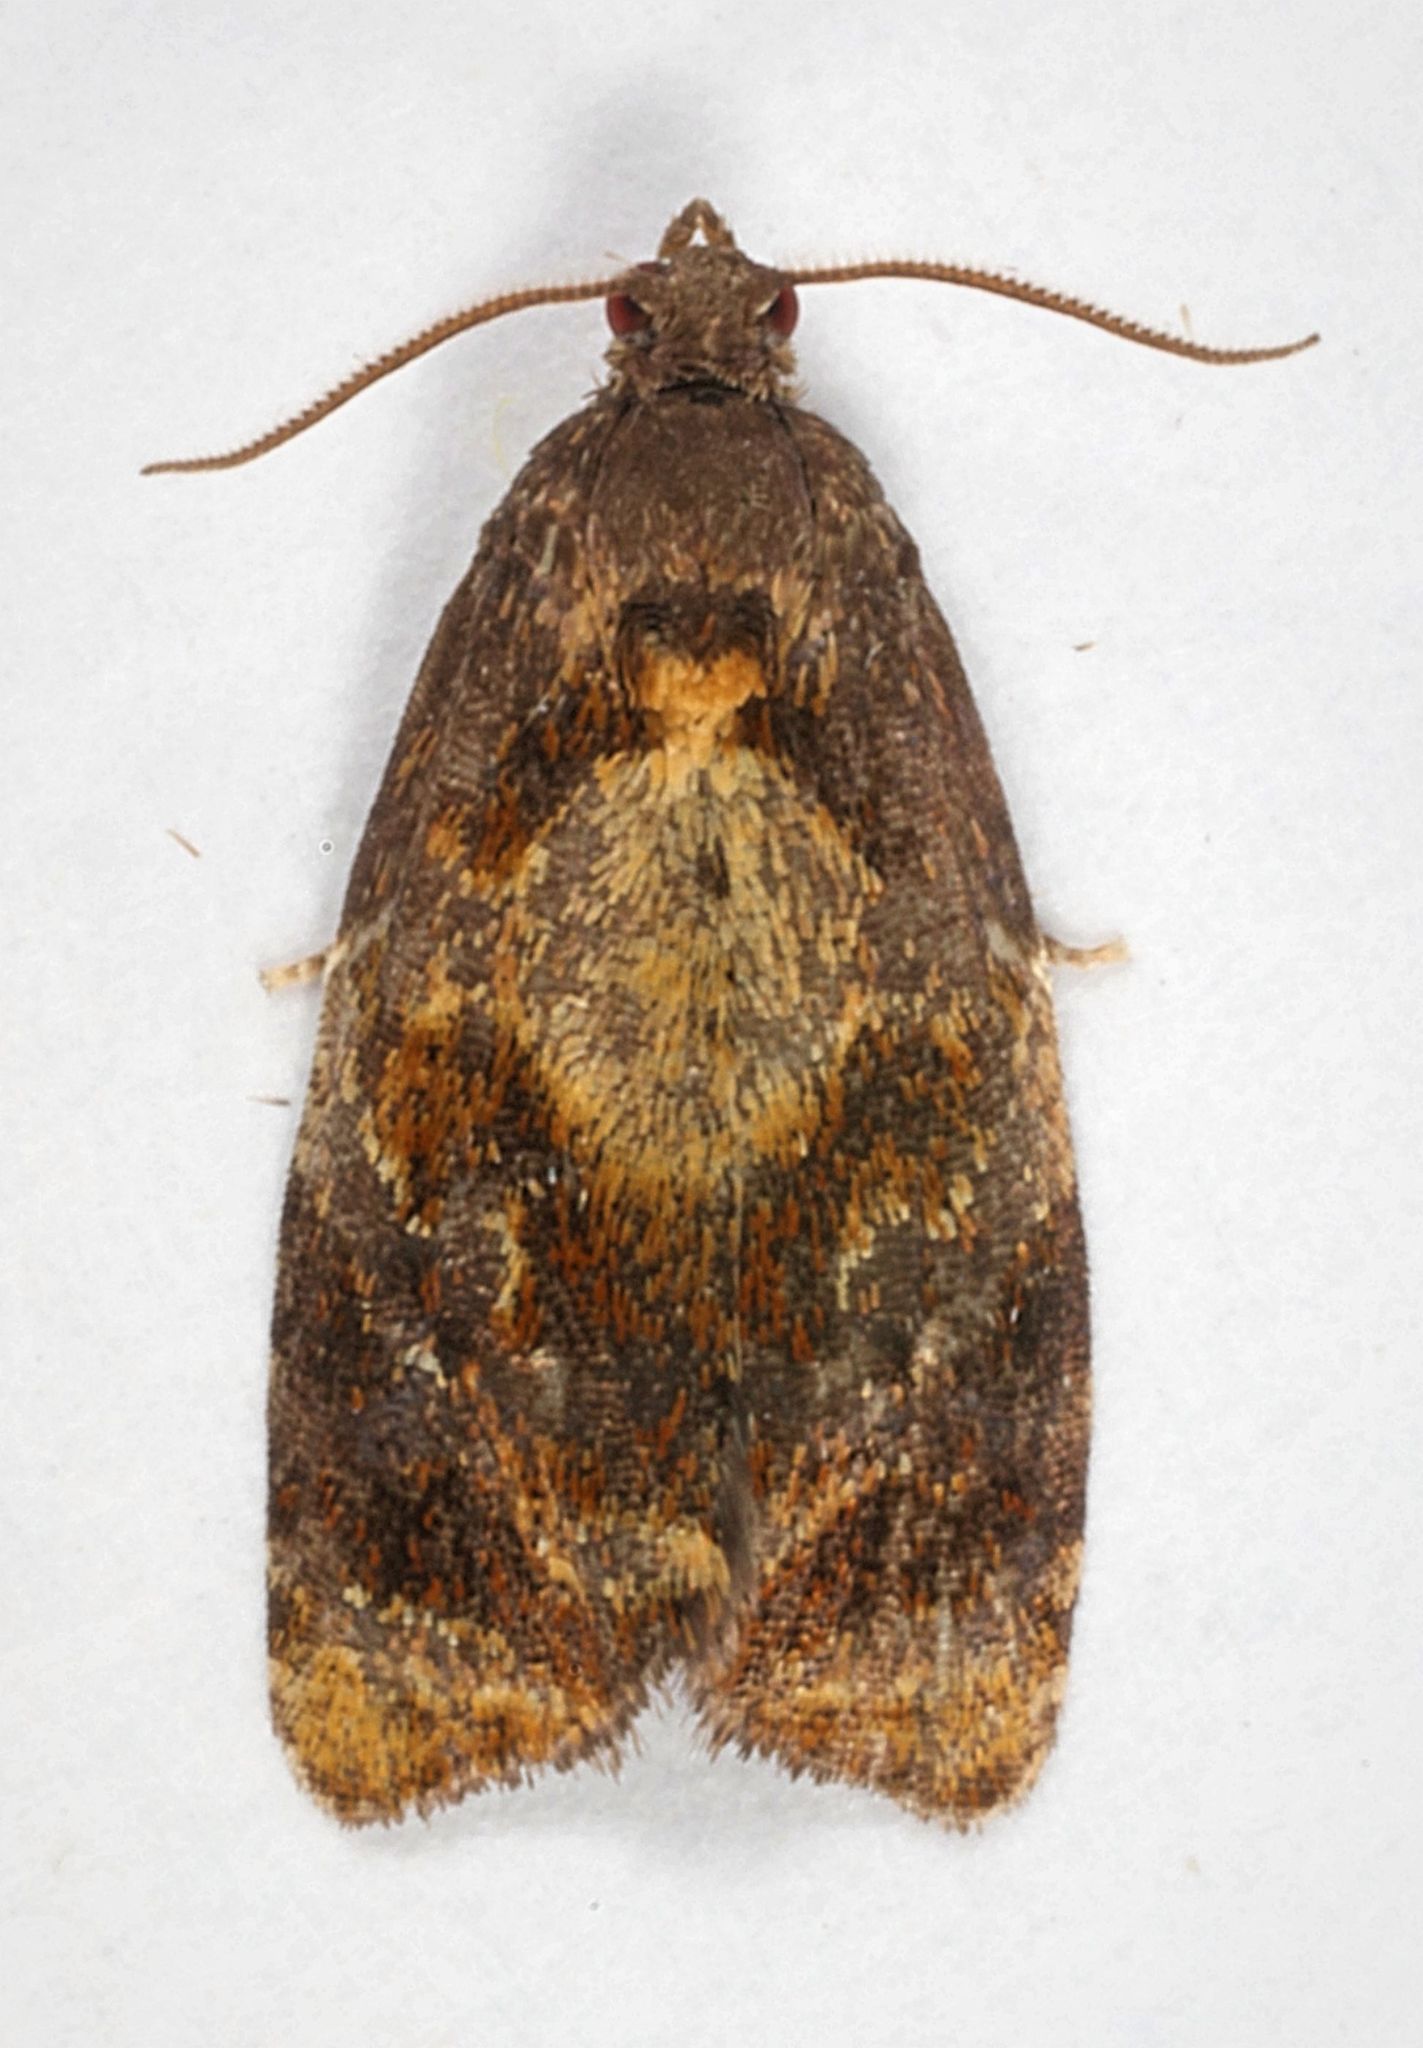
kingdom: Animalia
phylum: Arthropoda
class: Insecta
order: Lepidoptera
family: Tortricidae
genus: Ditula
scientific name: Ditula angustiorana
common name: Red-barred tortrix
